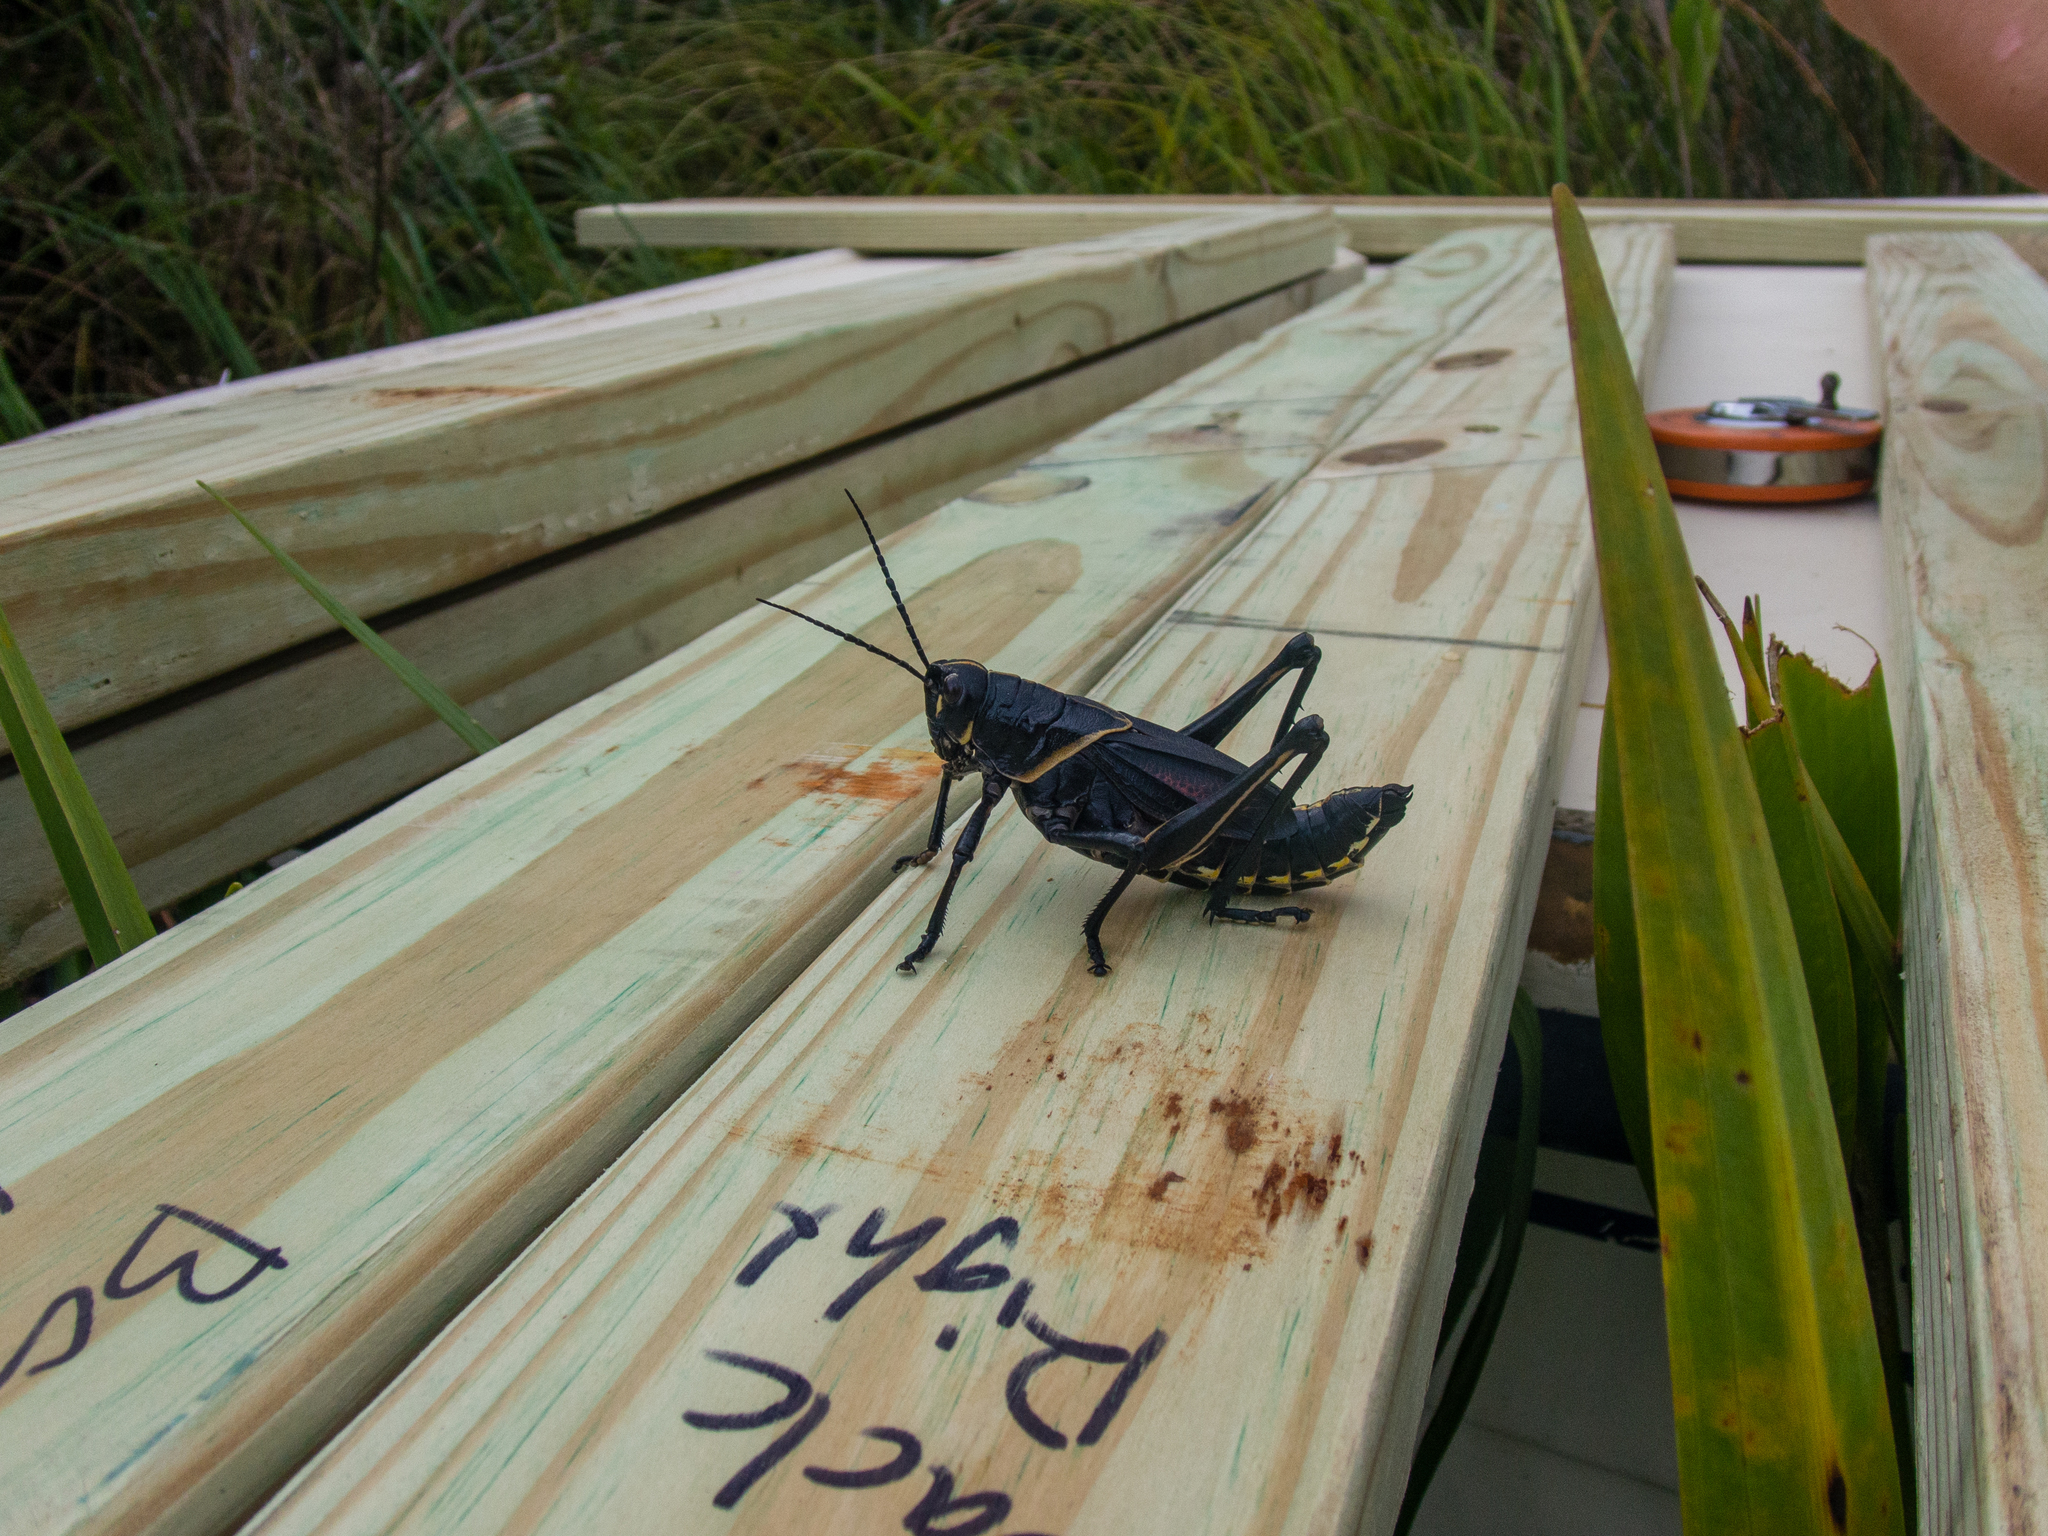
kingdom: Animalia
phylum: Arthropoda
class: Insecta
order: Orthoptera
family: Romaleidae
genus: Romalea
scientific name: Romalea microptera
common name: Eastern lubber grasshopper
